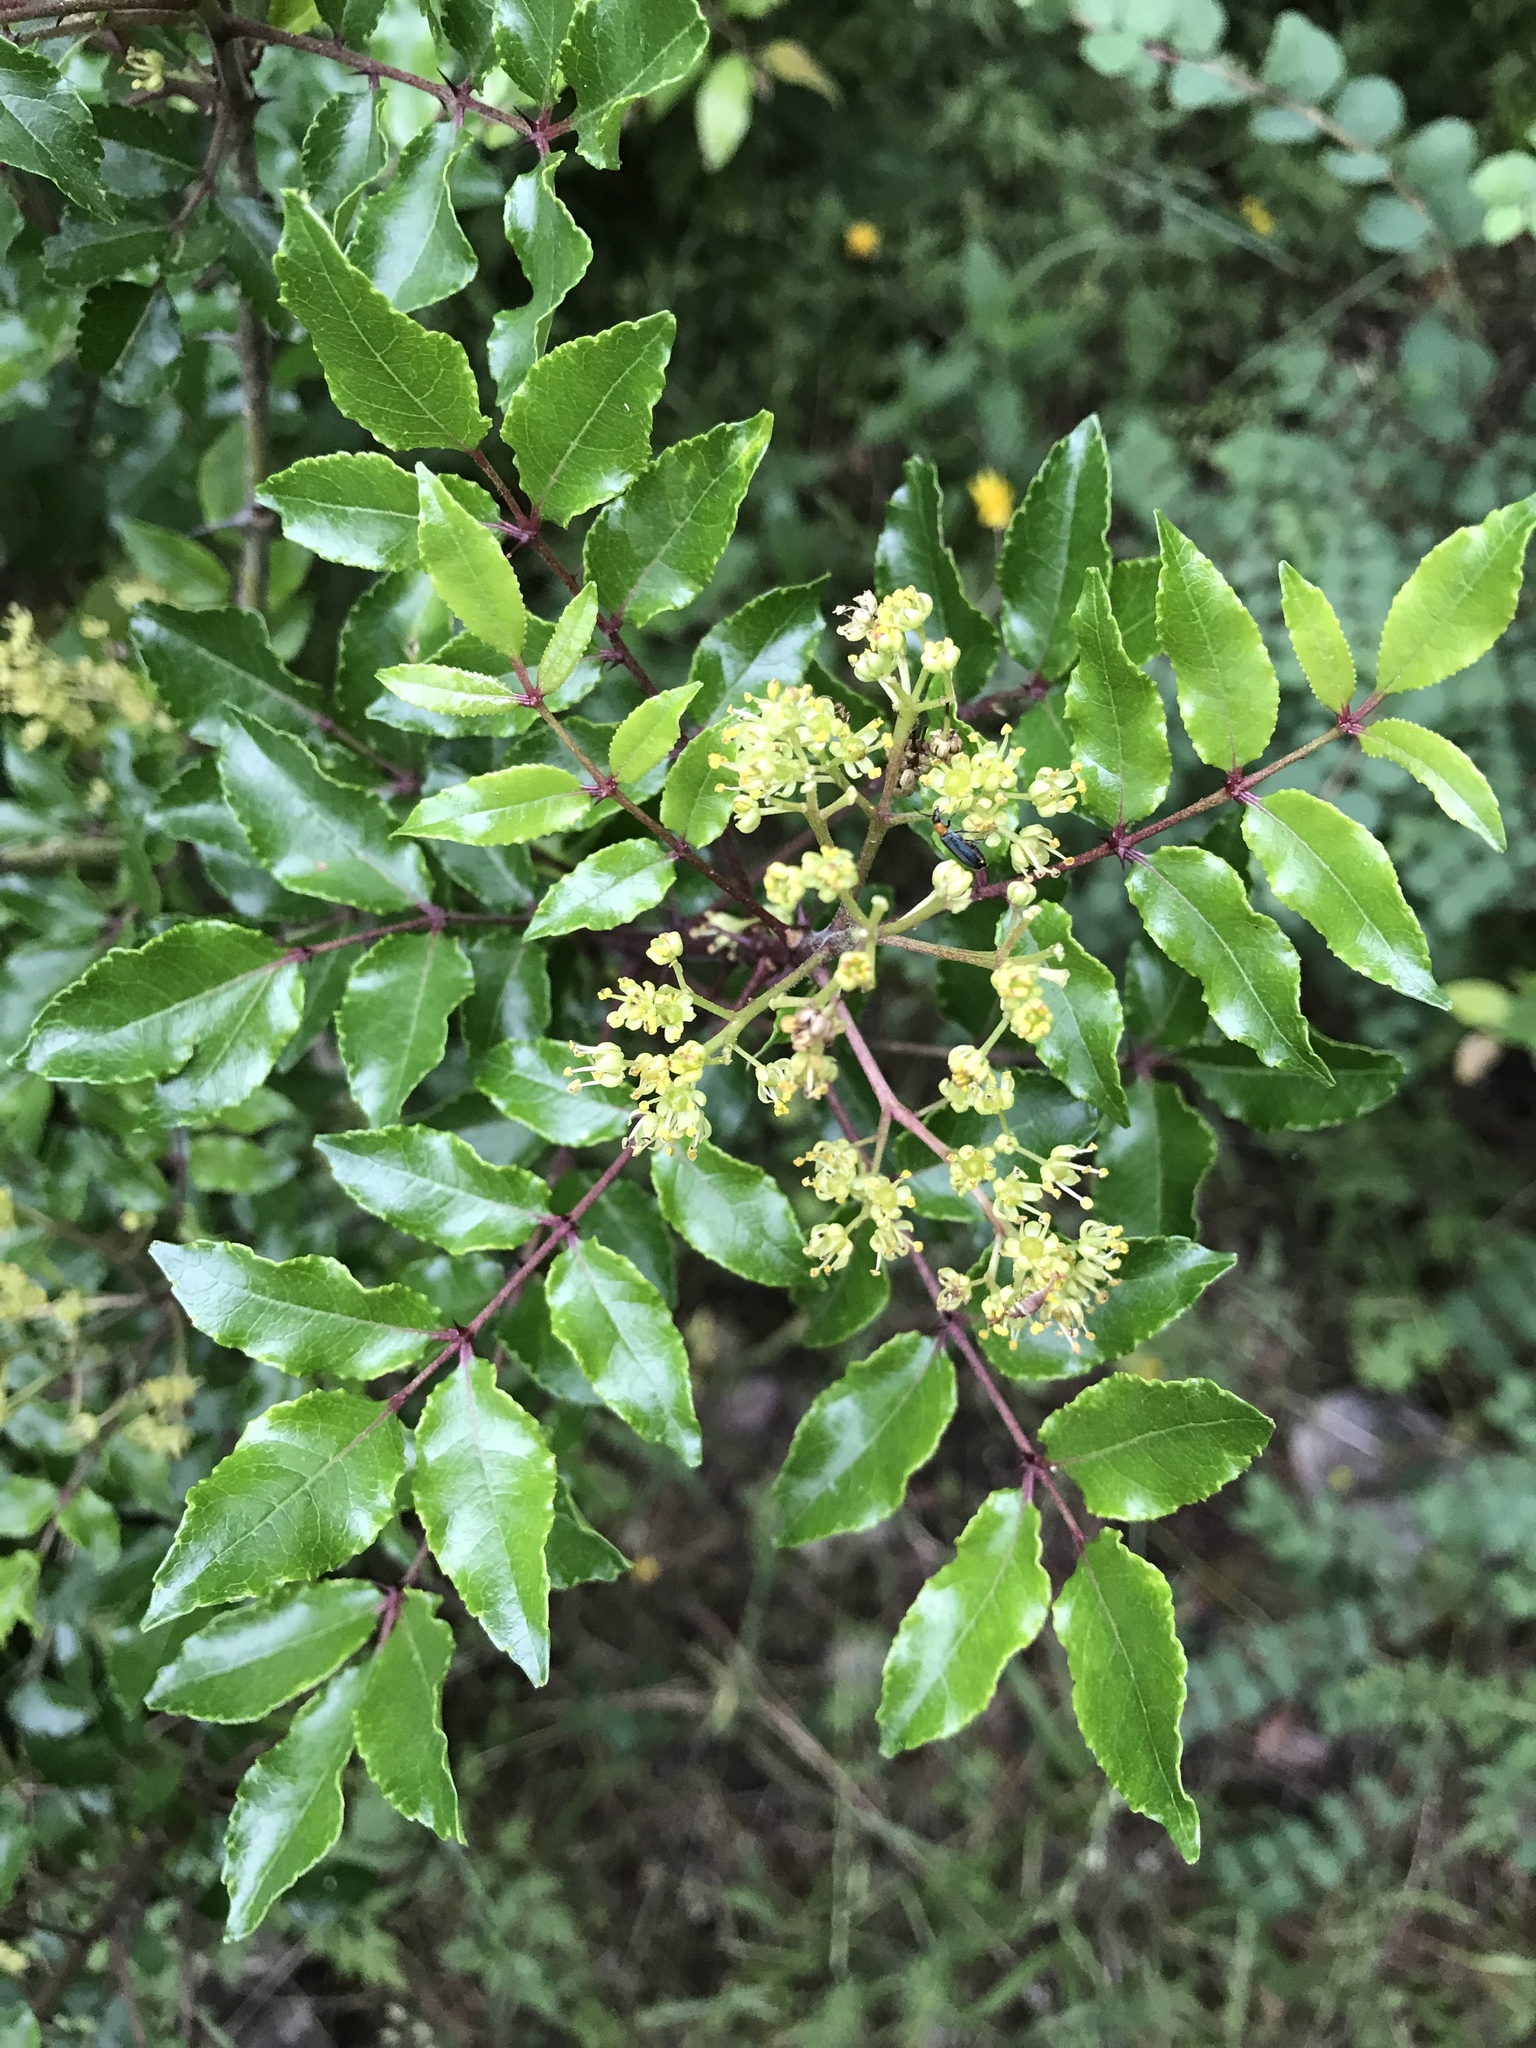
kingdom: Plantae
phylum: Tracheophyta
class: Magnoliopsida
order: Sapindales
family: Rutaceae
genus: Zanthoxylum
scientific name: Zanthoxylum clava-herculis
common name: Hercules'-club
